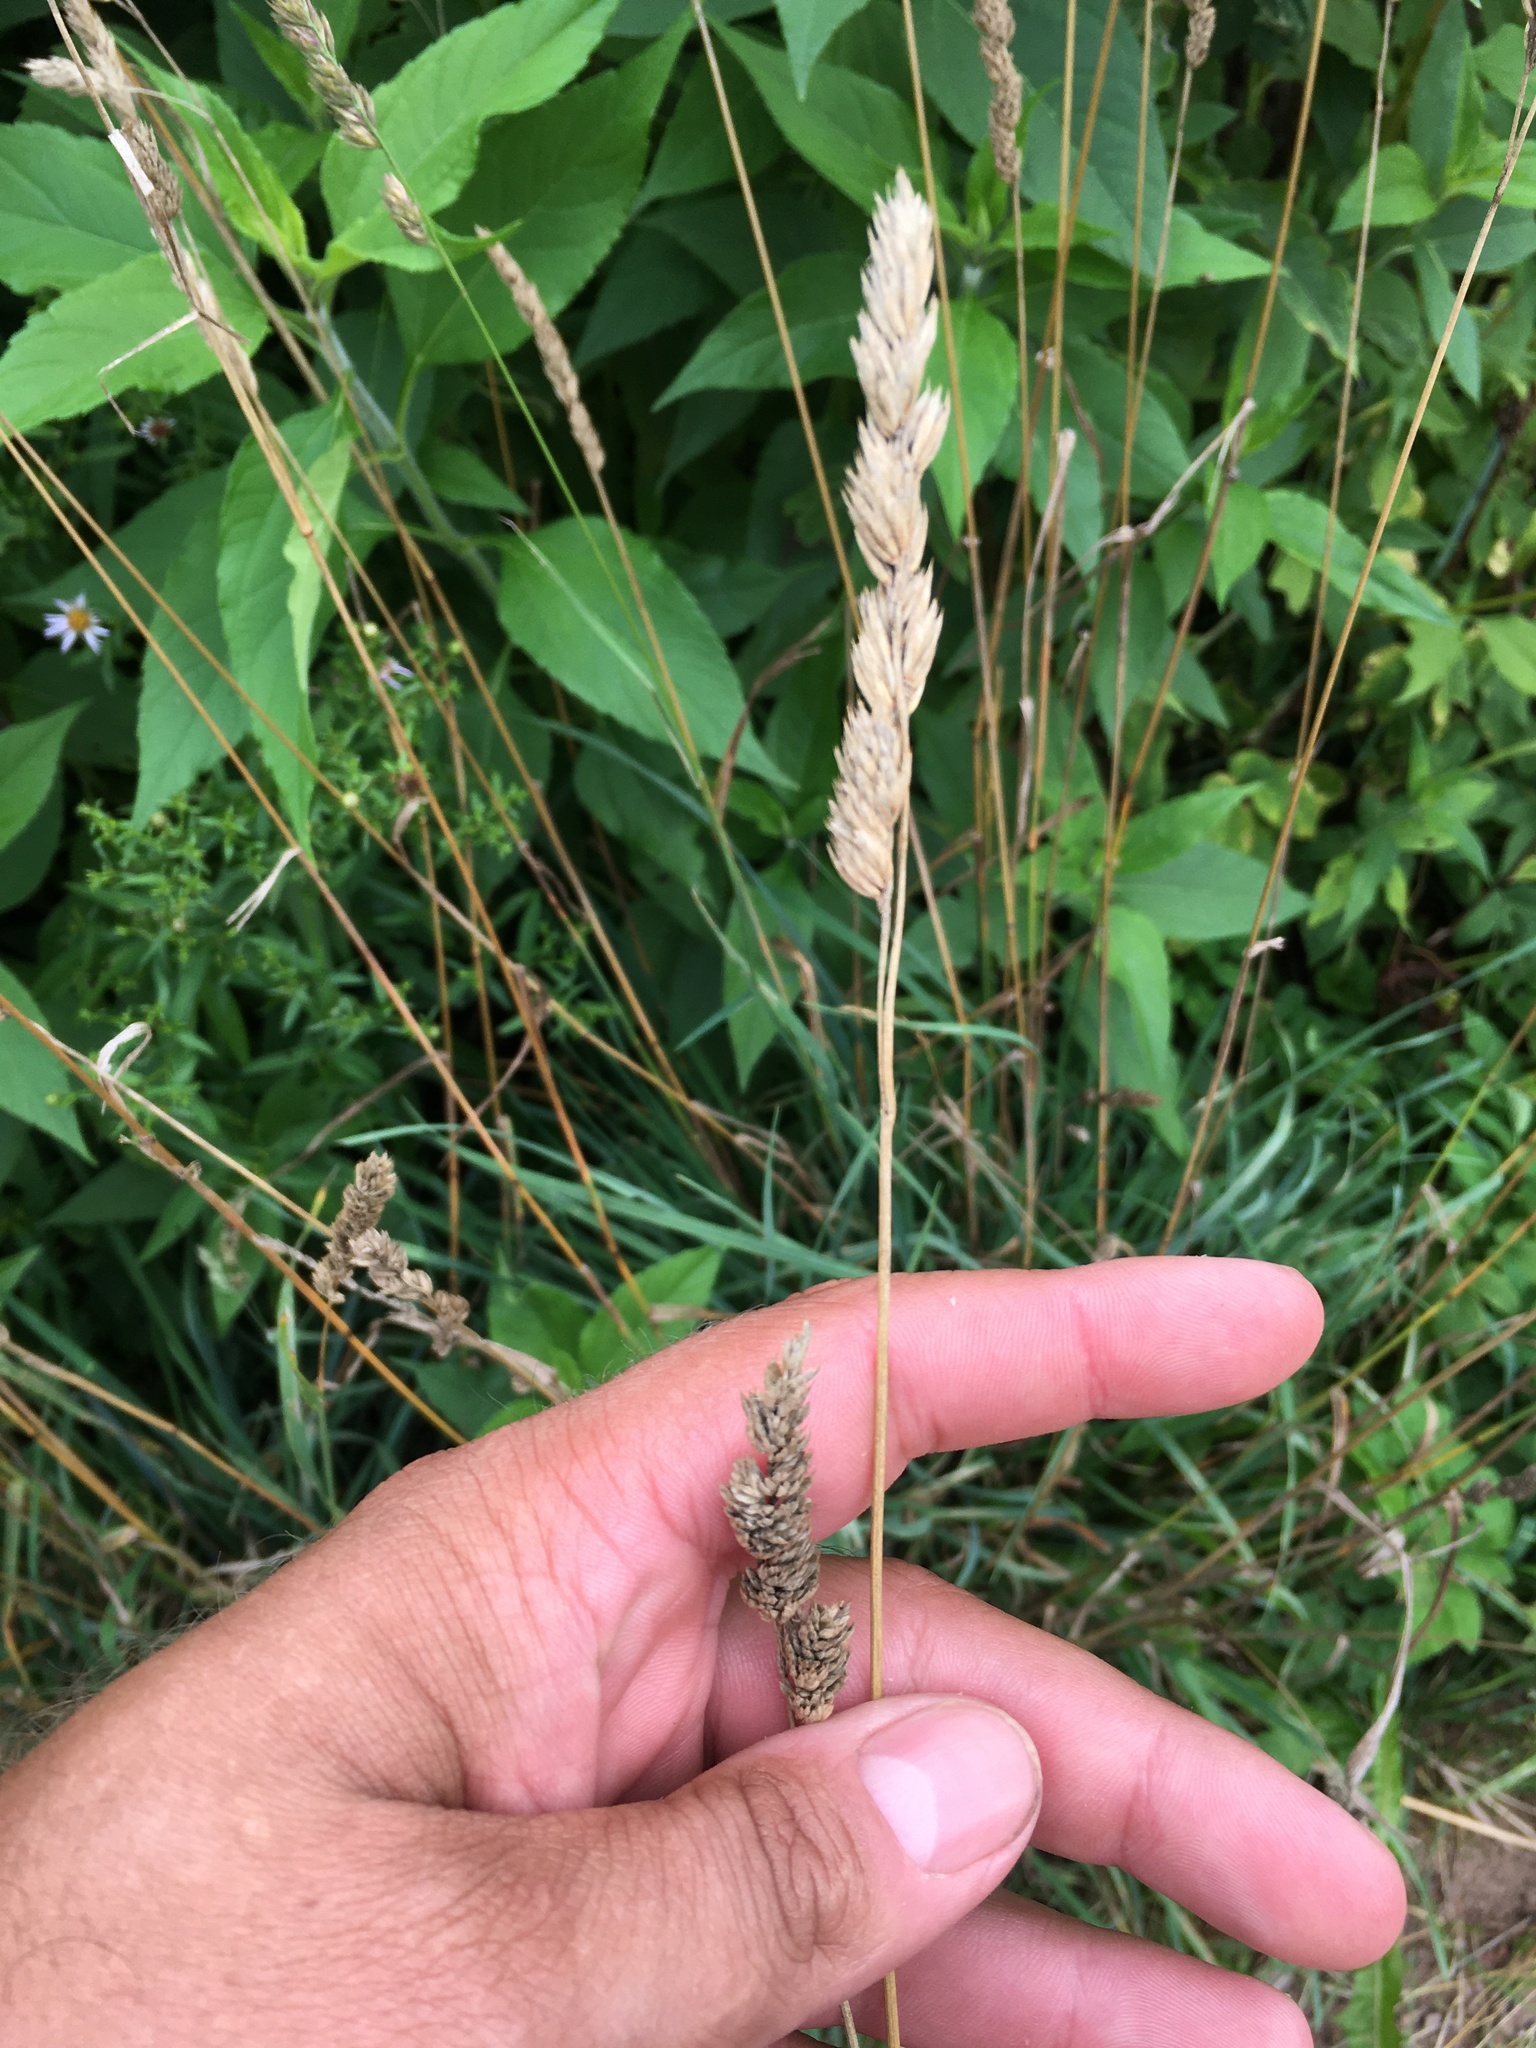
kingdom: Plantae
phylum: Tracheophyta
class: Liliopsida
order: Poales
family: Poaceae
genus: Dactylis
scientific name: Dactylis glomerata
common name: Orchardgrass
